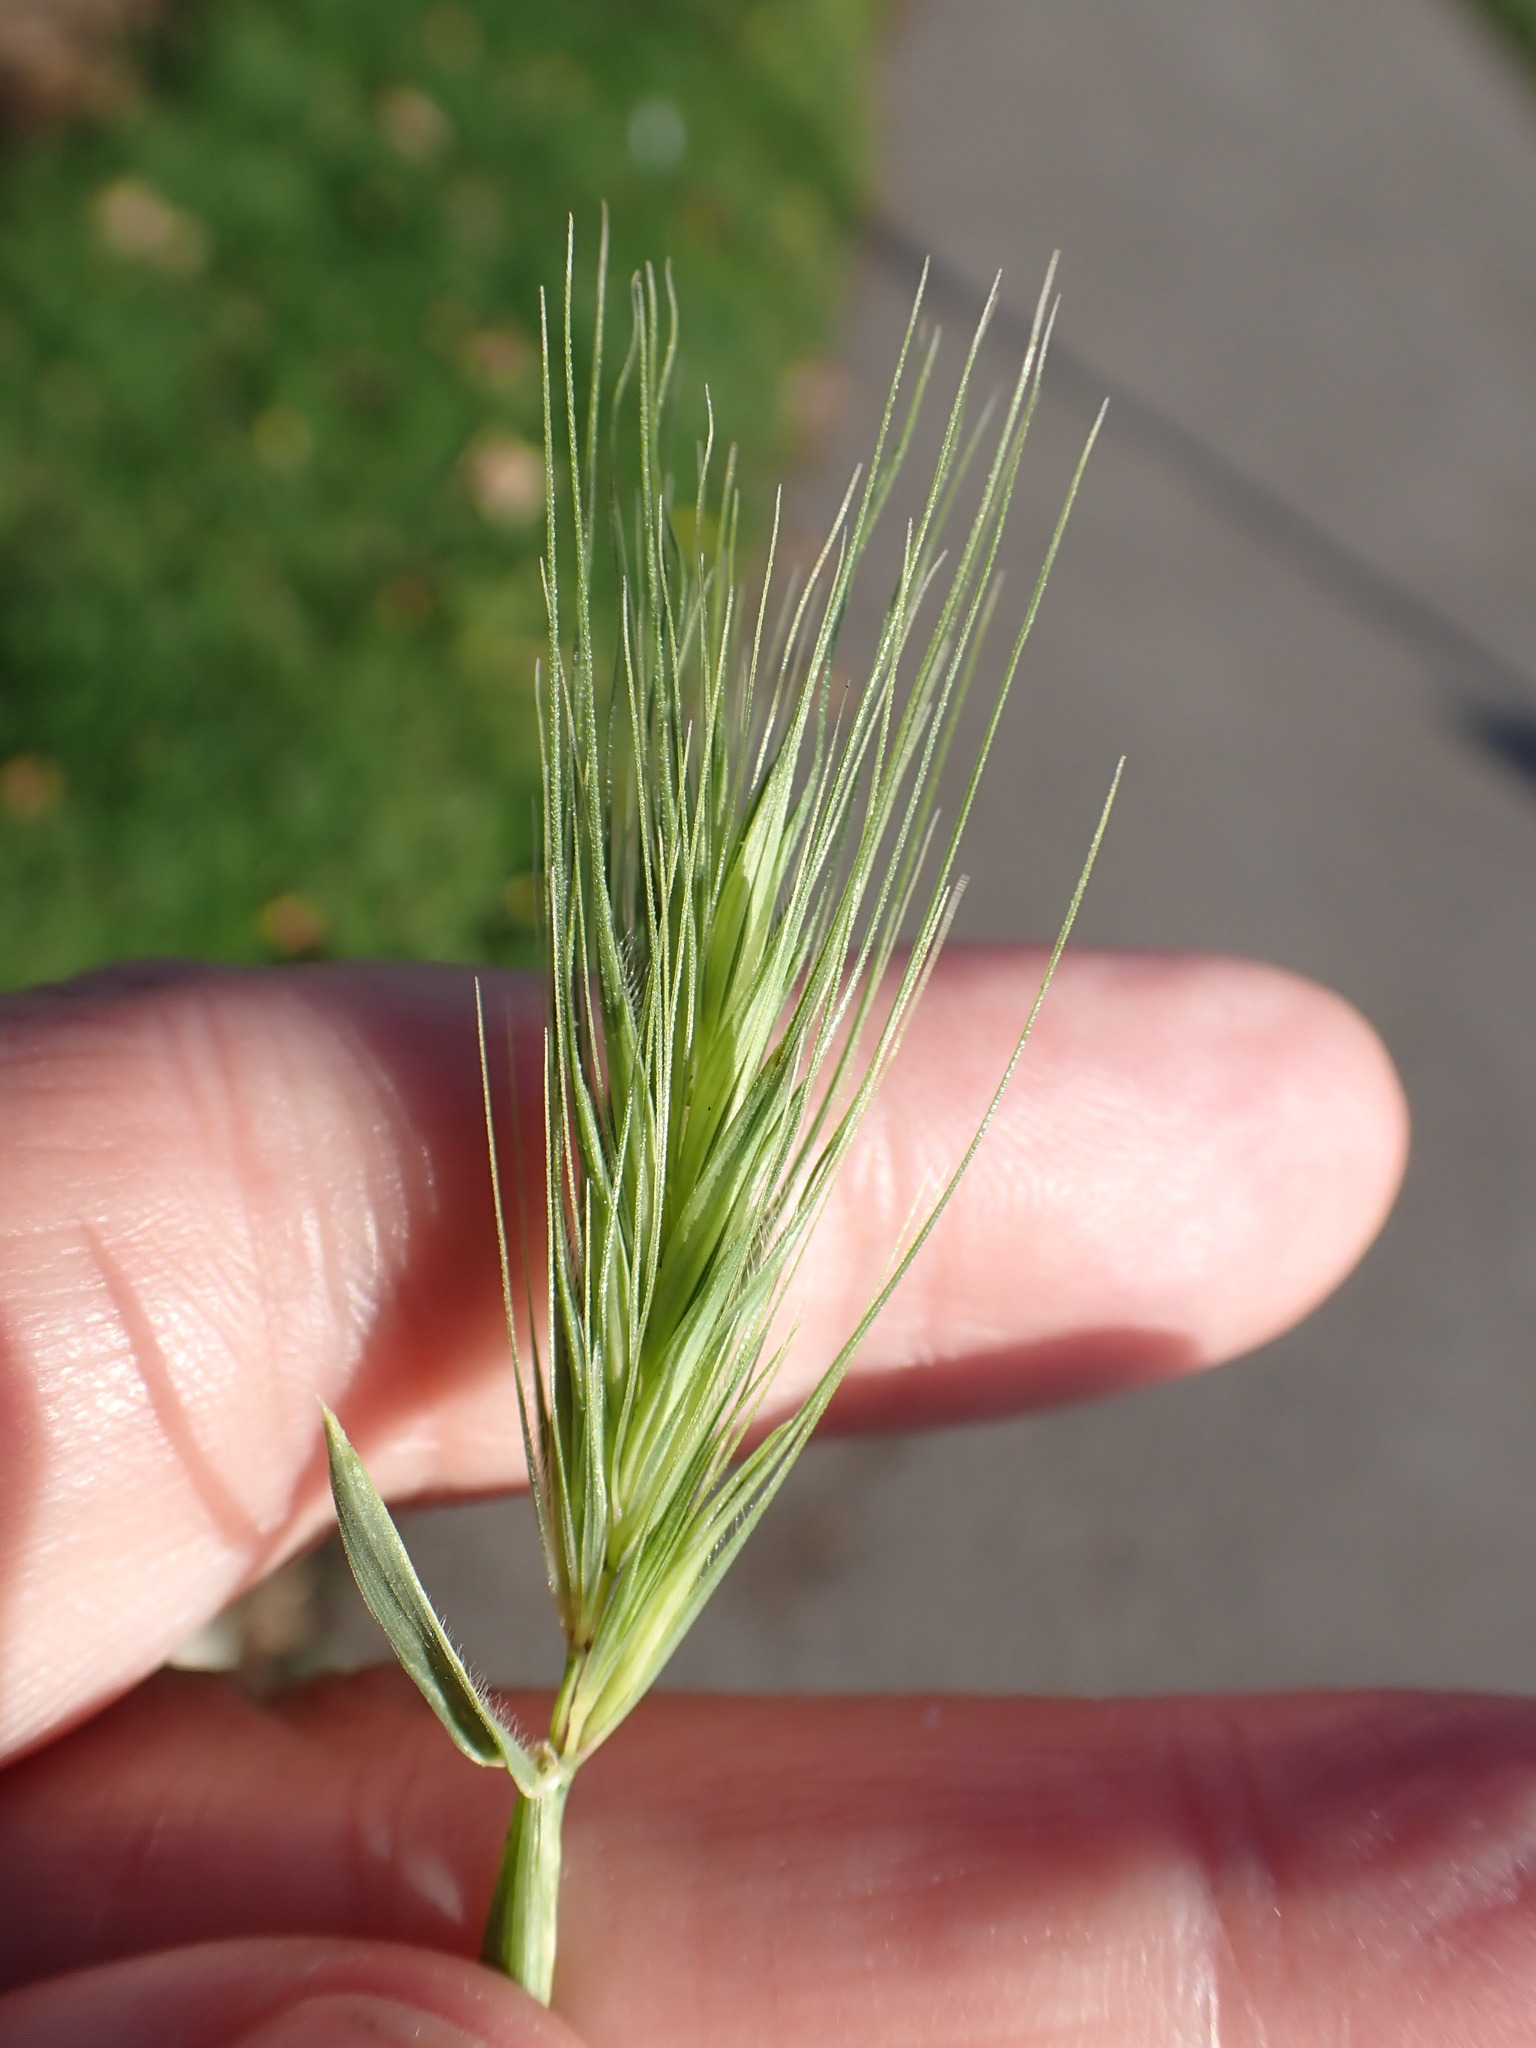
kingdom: Plantae
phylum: Tracheophyta
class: Liliopsida
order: Poales
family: Poaceae
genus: Hordeum
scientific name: Hordeum murinum
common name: Wall barley
